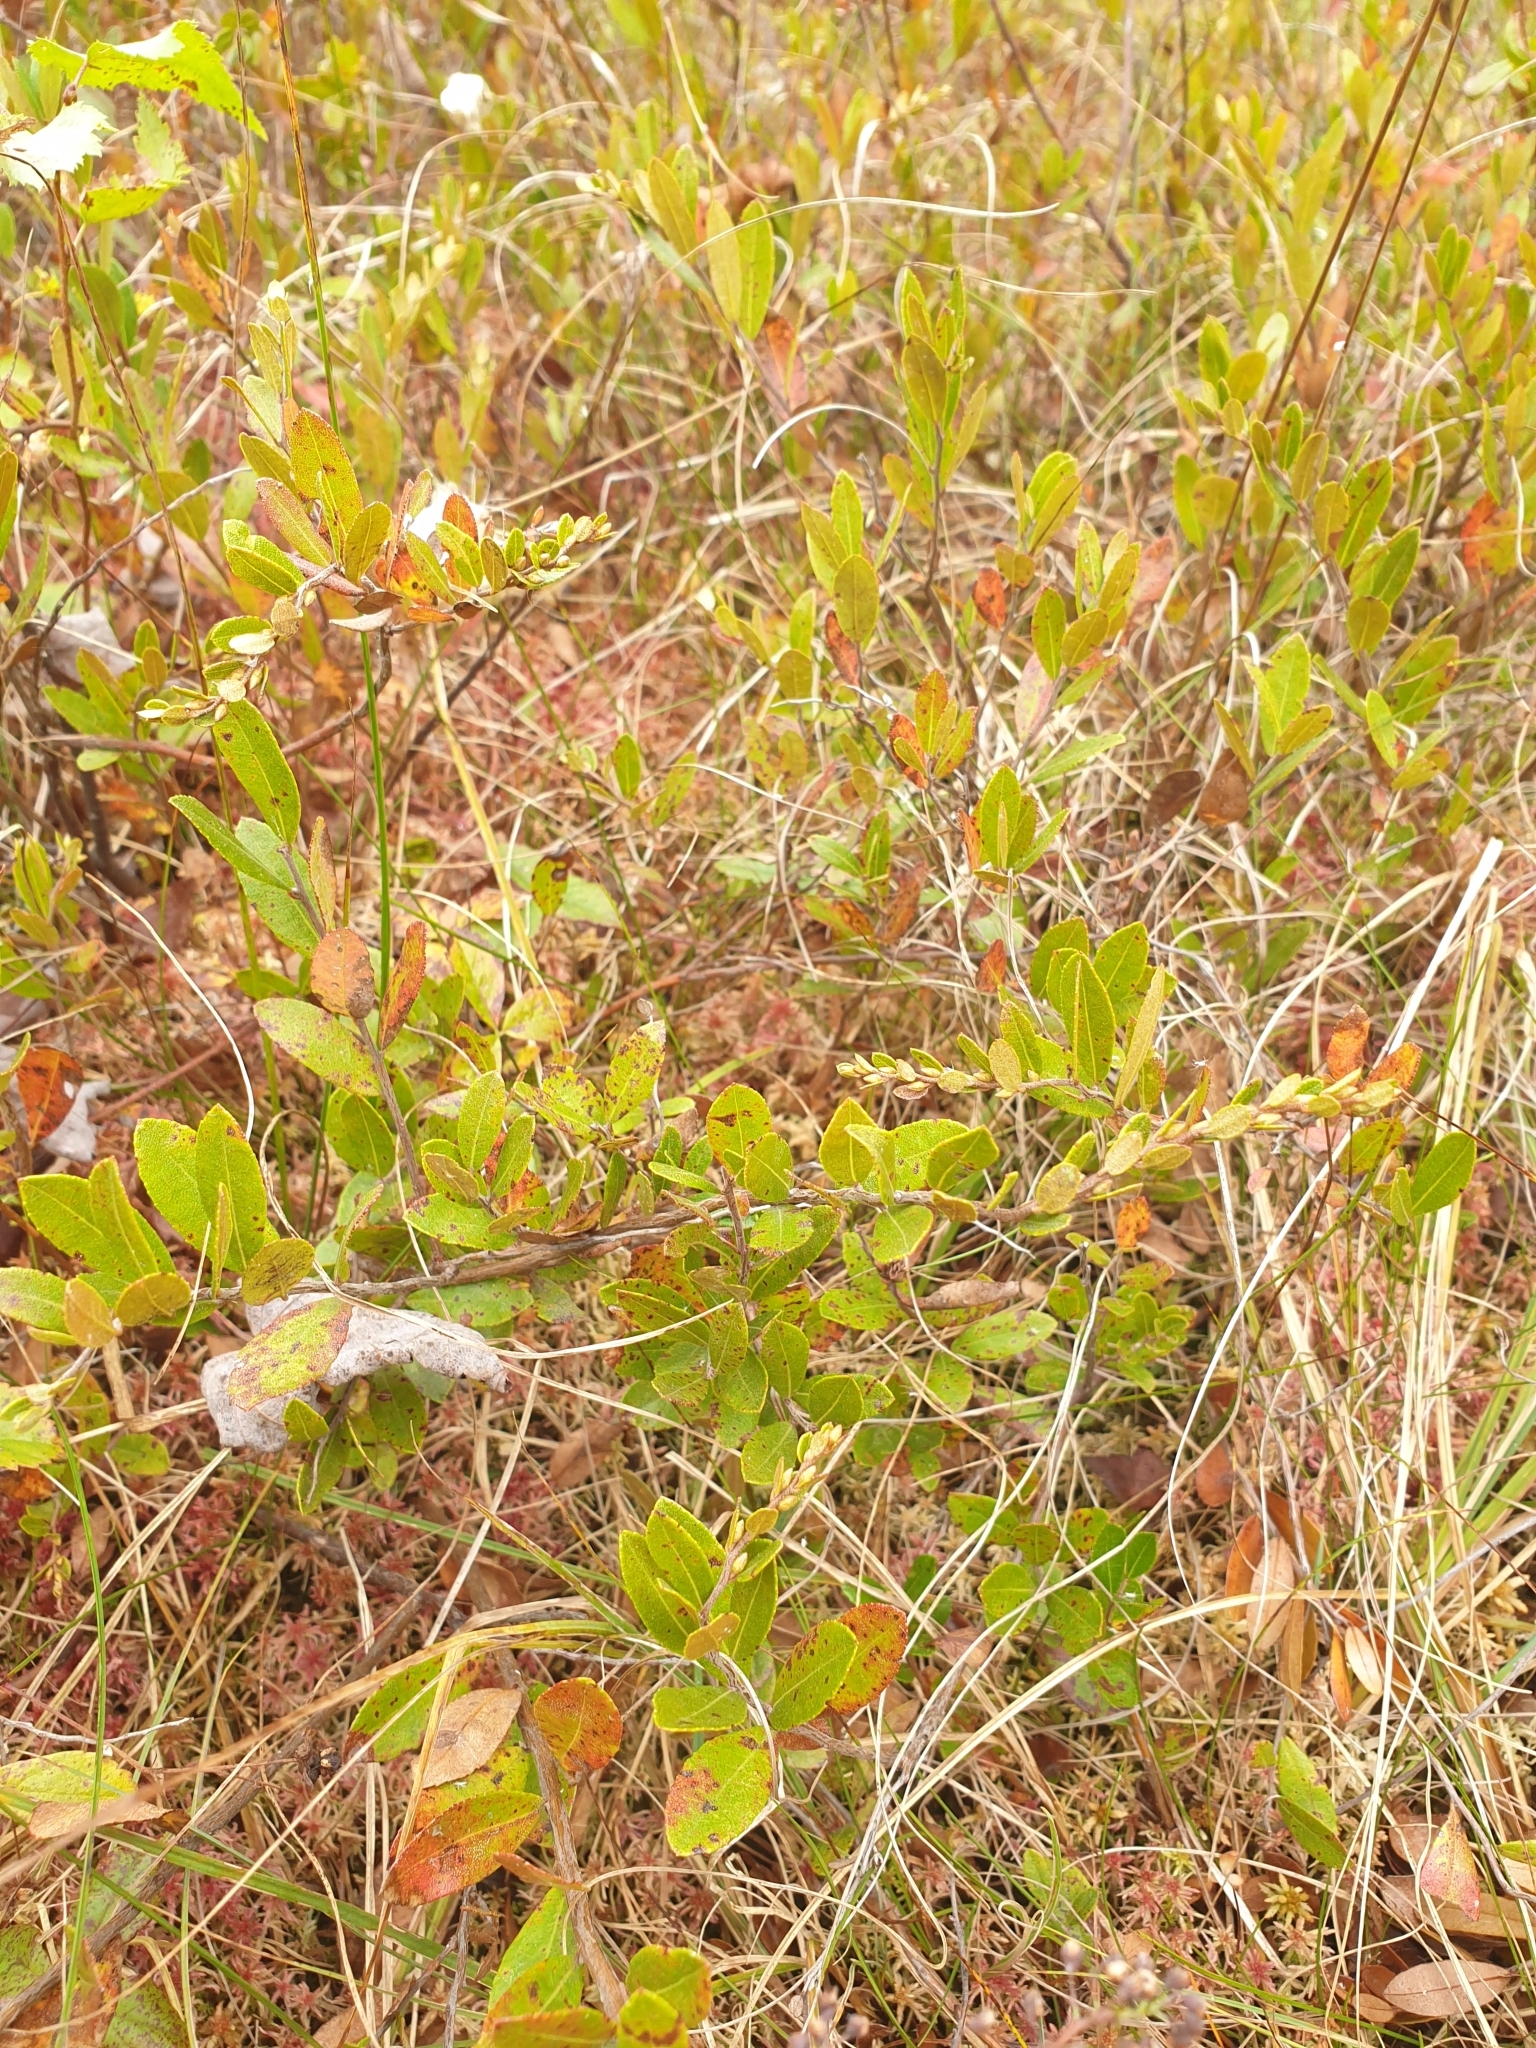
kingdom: Plantae
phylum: Tracheophyta
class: Magnoliopsida
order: Ericales
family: Ericaceae
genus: Chamaedaphne
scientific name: Chamaedaphne calyculata
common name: Leatherleaf
